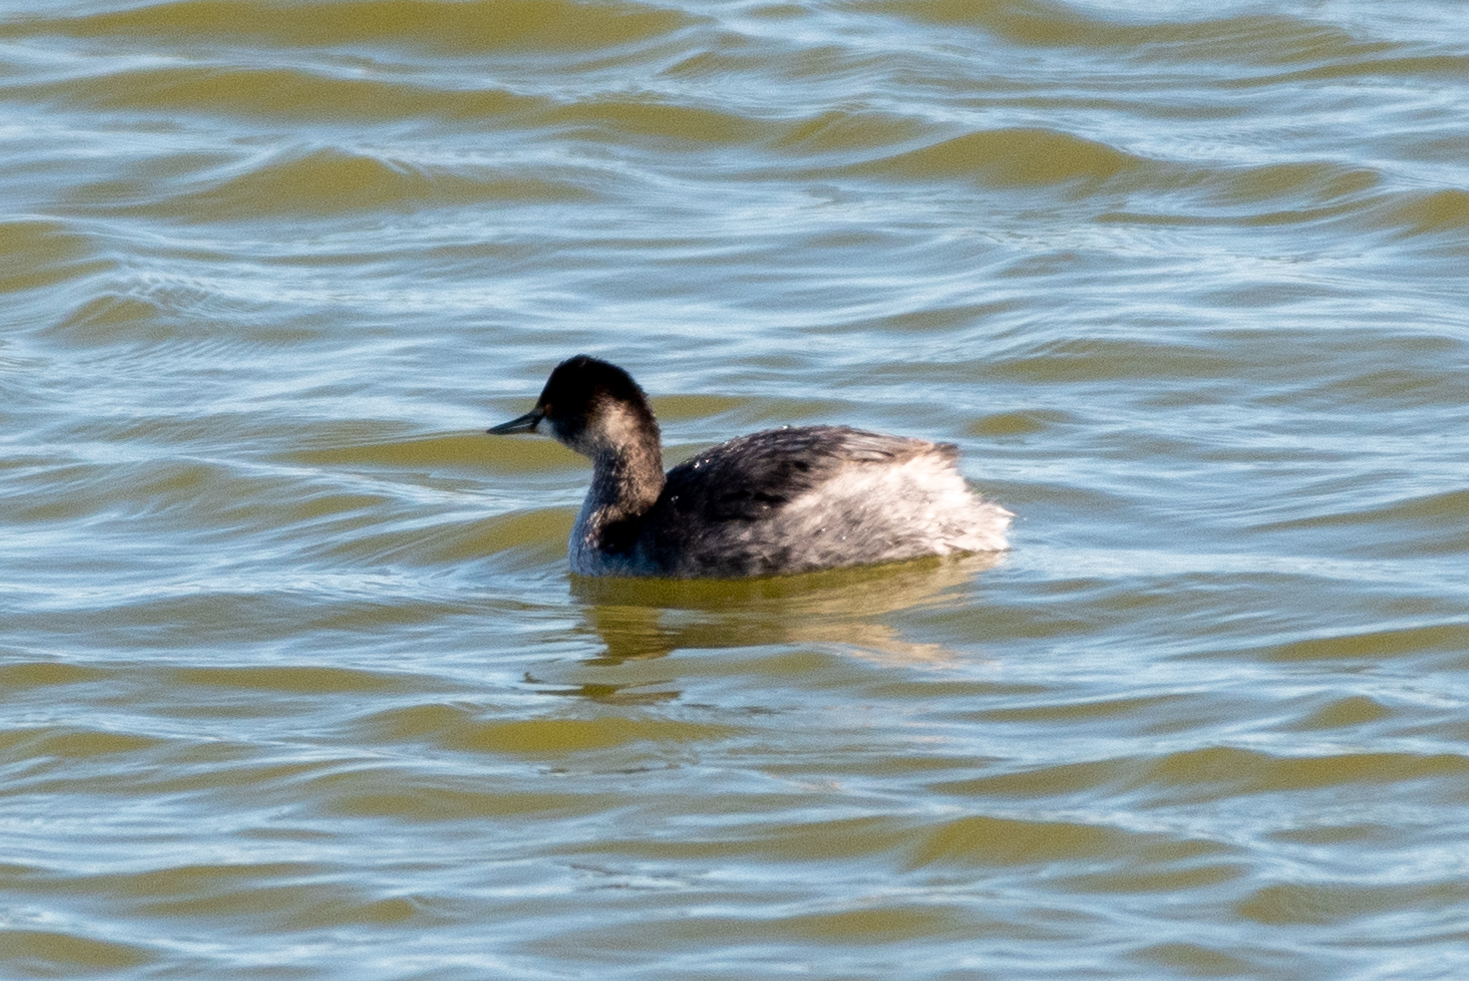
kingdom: Animalia
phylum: Chordata
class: Aves
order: Podicipediformes
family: Podicipedidae
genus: Podiceps
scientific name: Podiceps nigricollis
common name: Black-necked grebe
